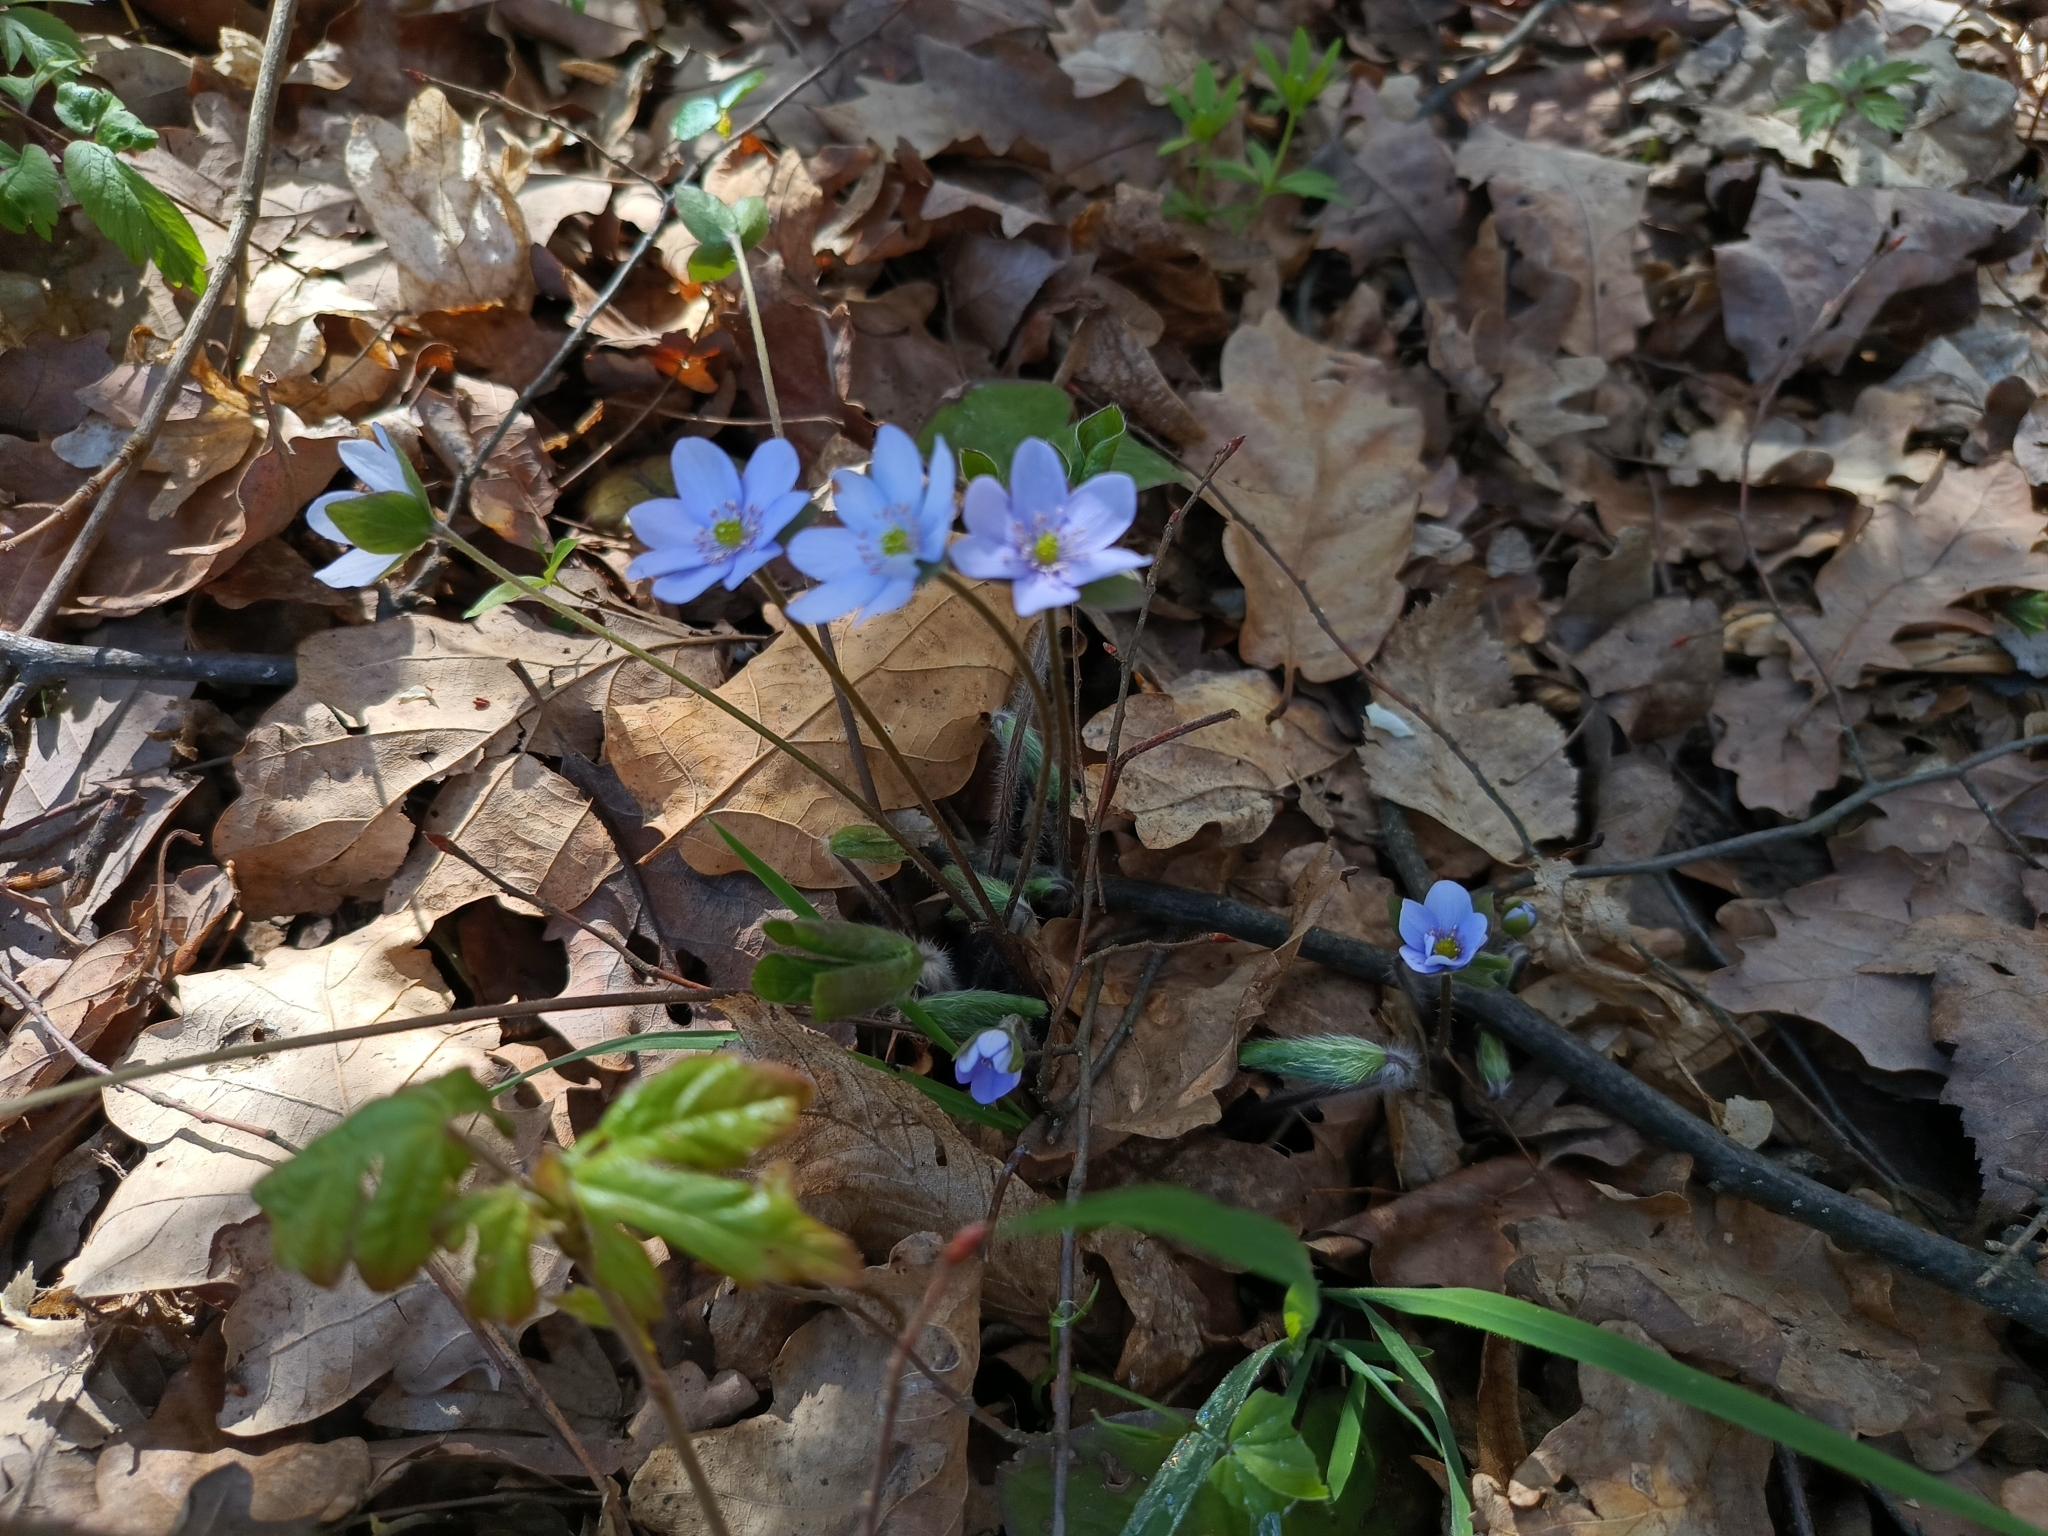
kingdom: Plantae
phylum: Tracheophyta
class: Magnoliopsida
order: Ranunculales
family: Ranunculaceae
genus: Hepatica
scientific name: Hepatica nobilis
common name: Liverleaf
